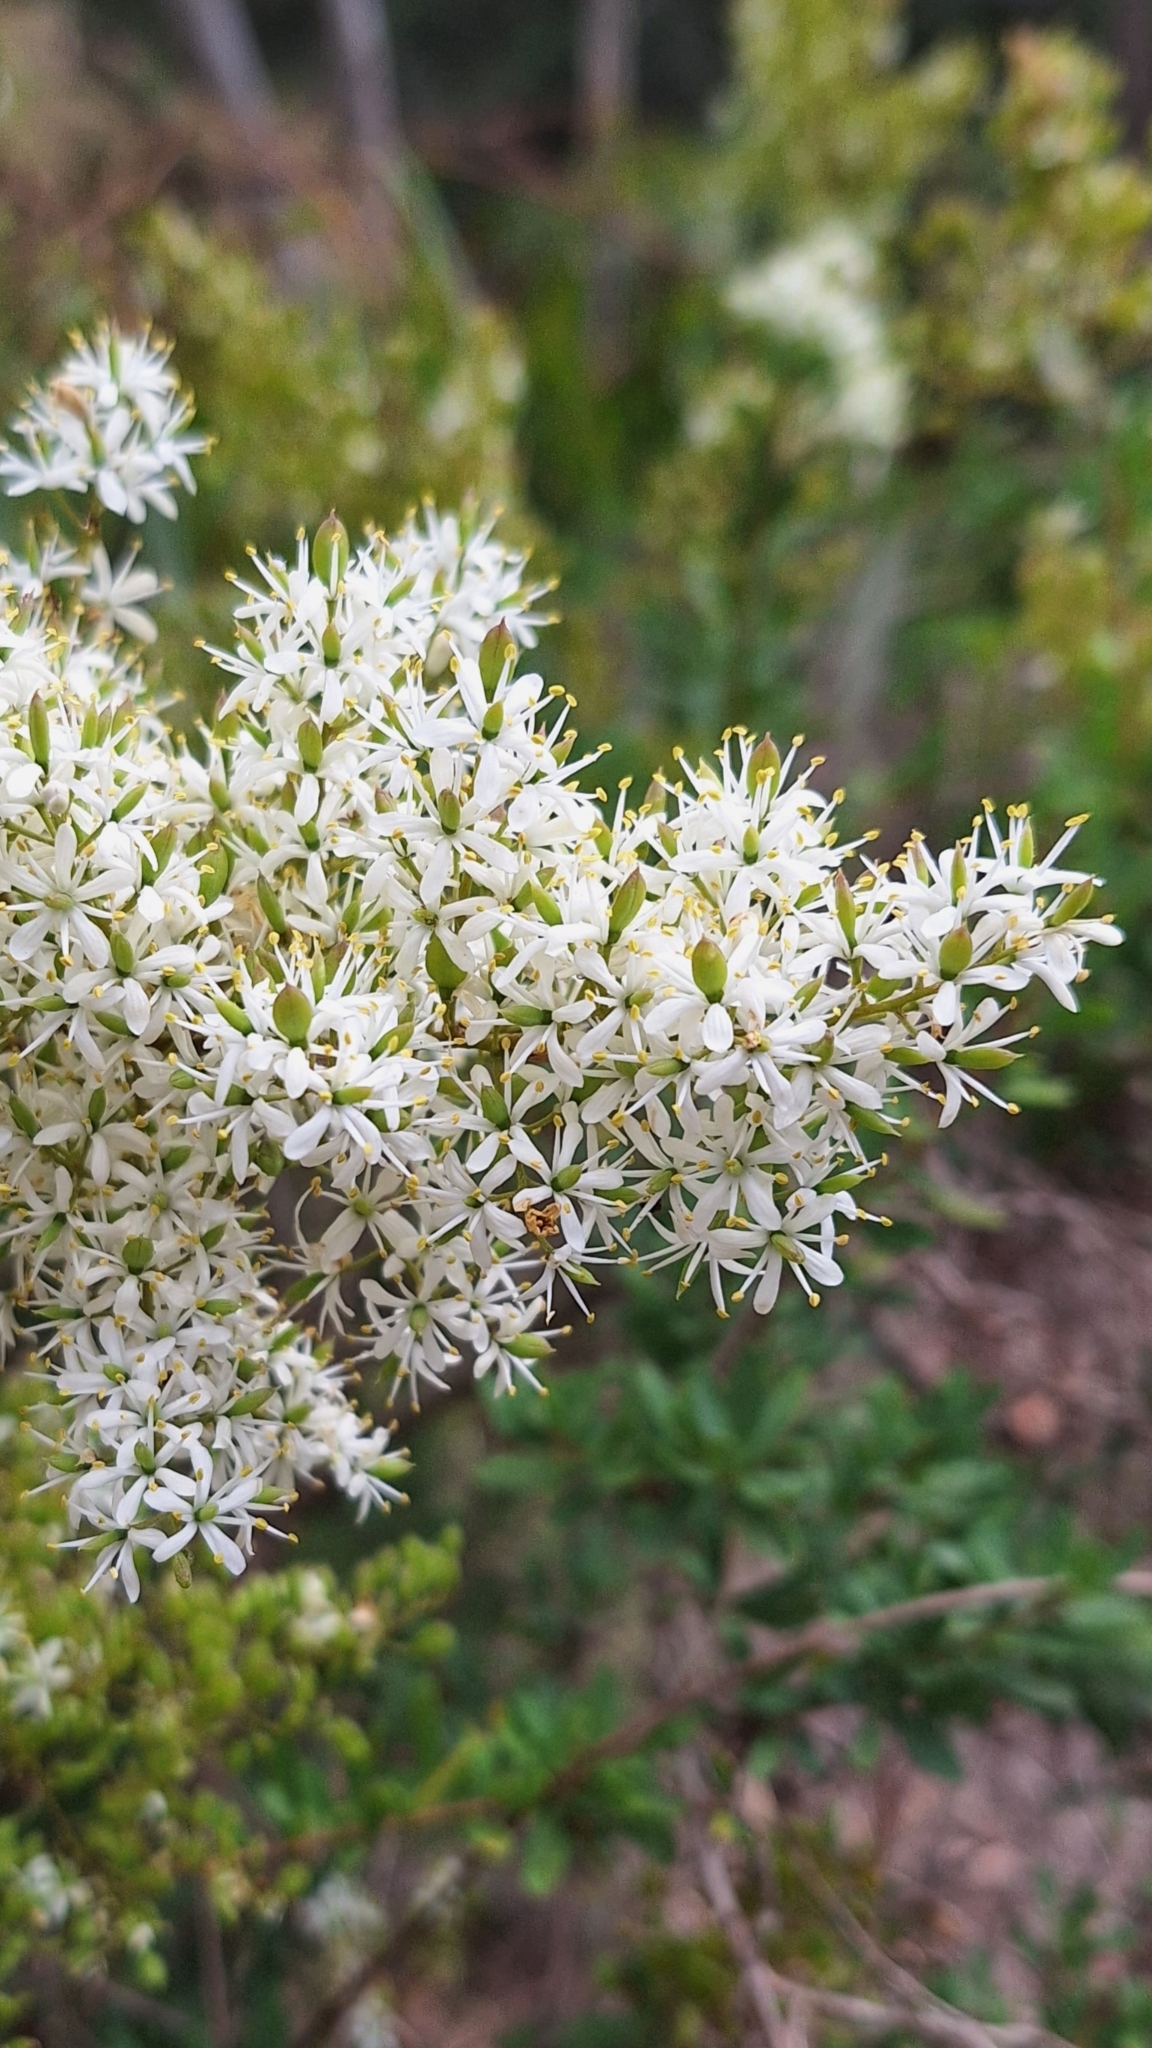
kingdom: Plantae
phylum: Tracheophyta
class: Magnoliopsida
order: Apiales
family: Pittosporaceae
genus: Bursaria
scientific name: Bursaria spinosa
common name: Australian blackthorn
